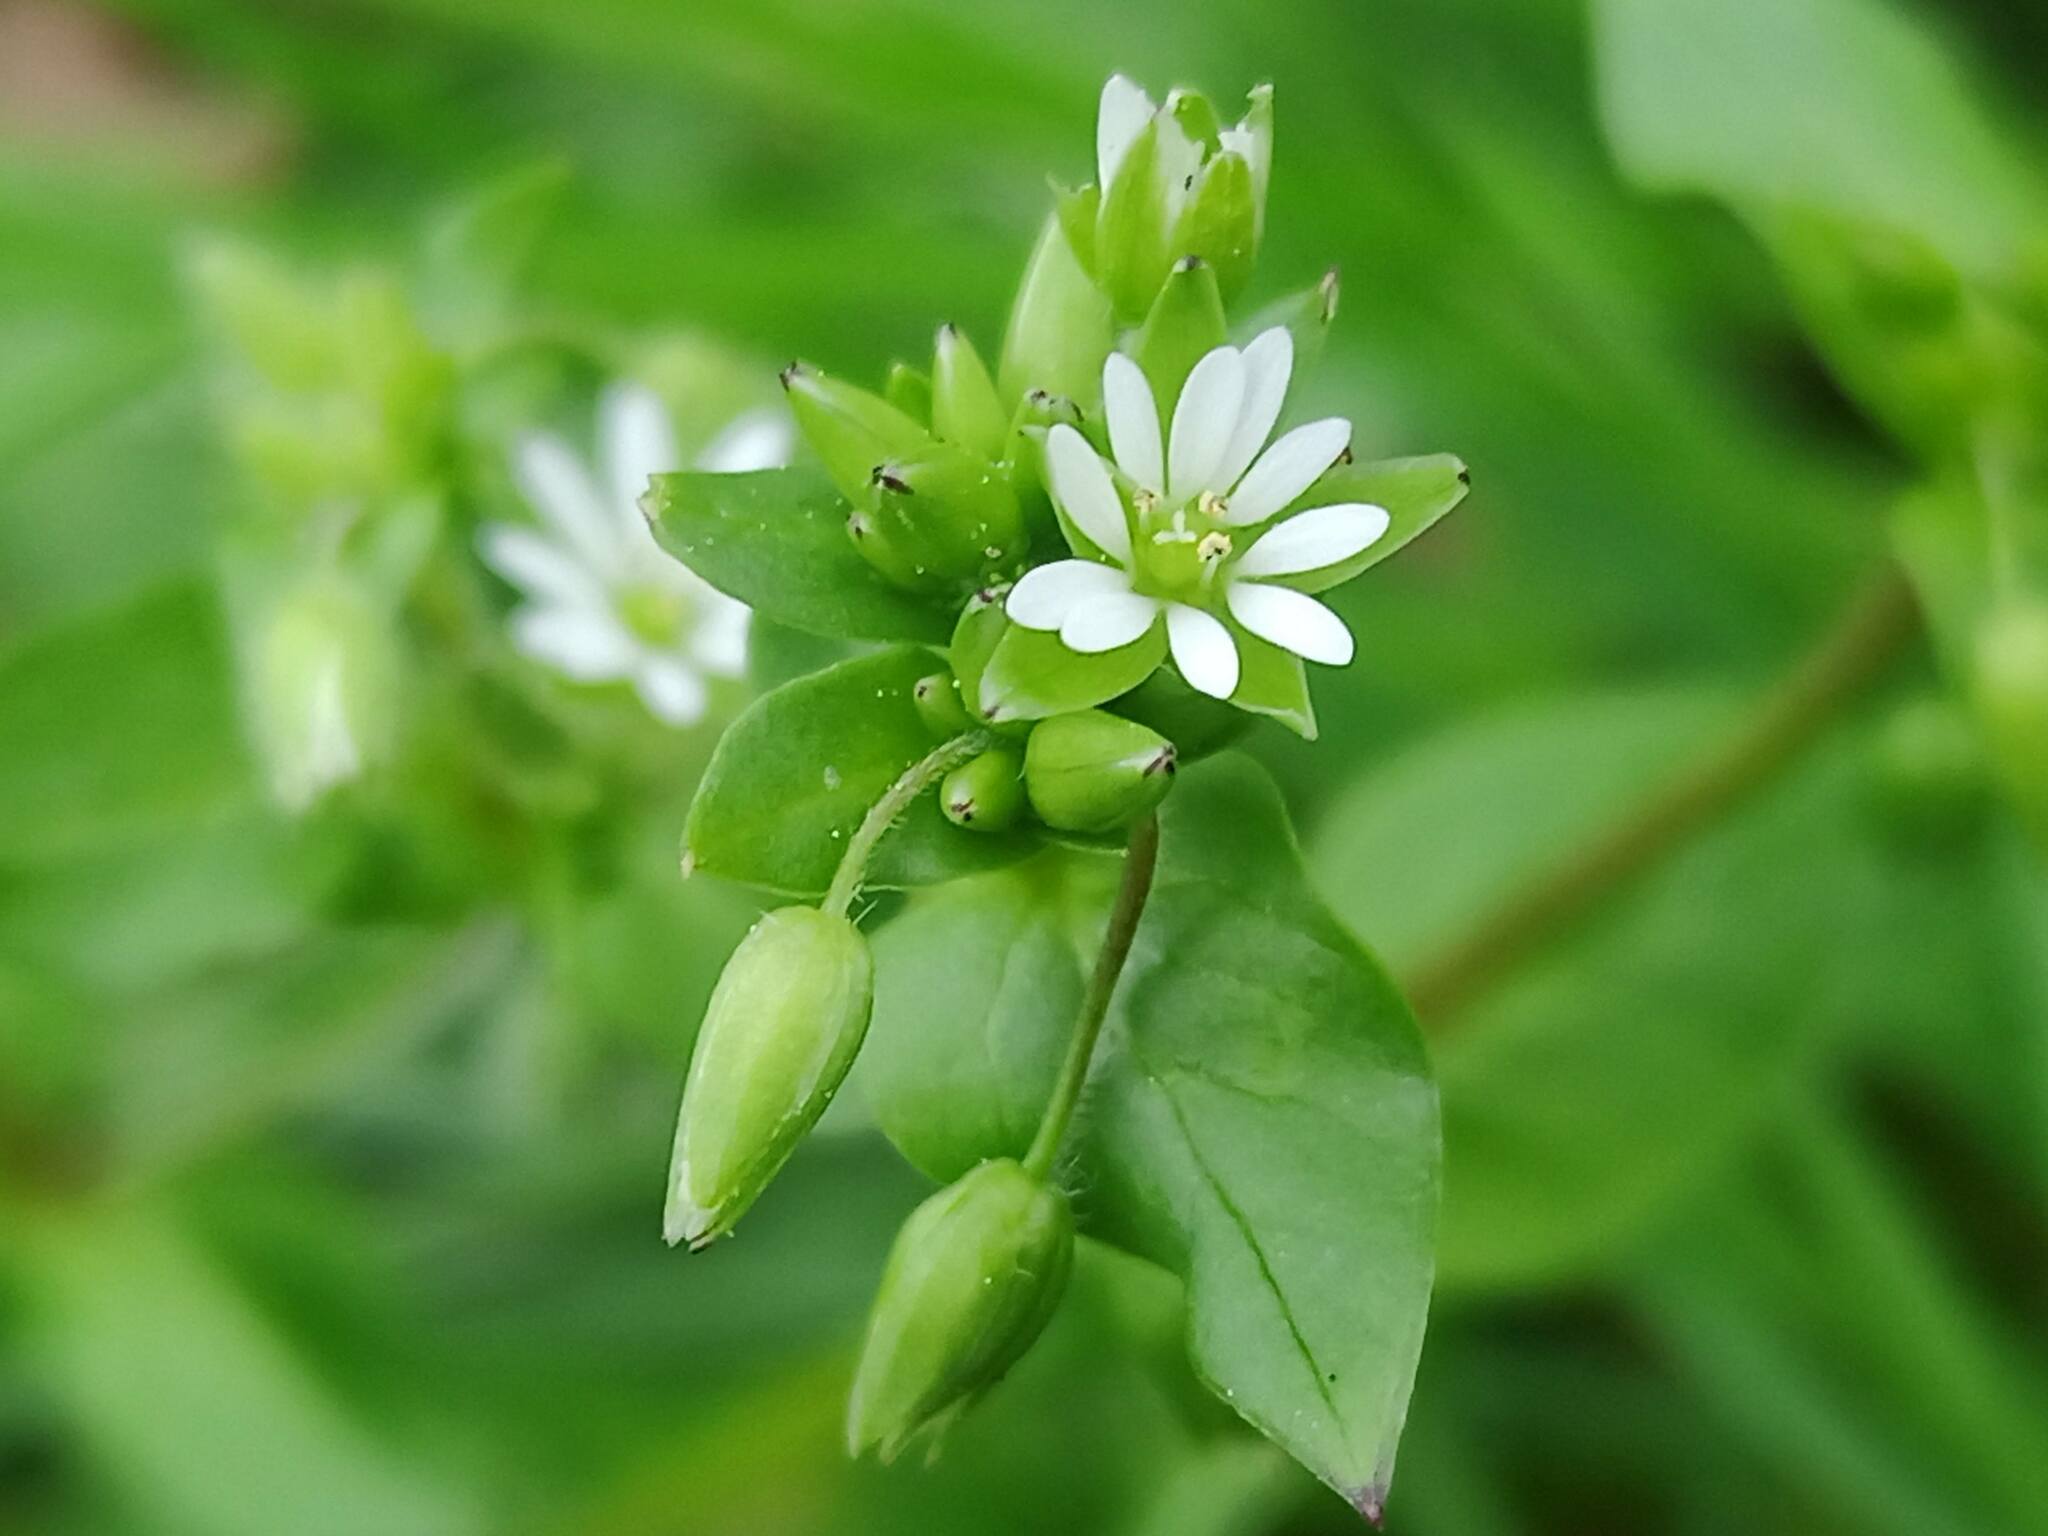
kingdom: Plantae
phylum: Tracheophyta
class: Magnoliopsida
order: Caryophyllales
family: Caryophyllaceae
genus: Stellaria
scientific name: Stellaria media
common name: Common chickweed
